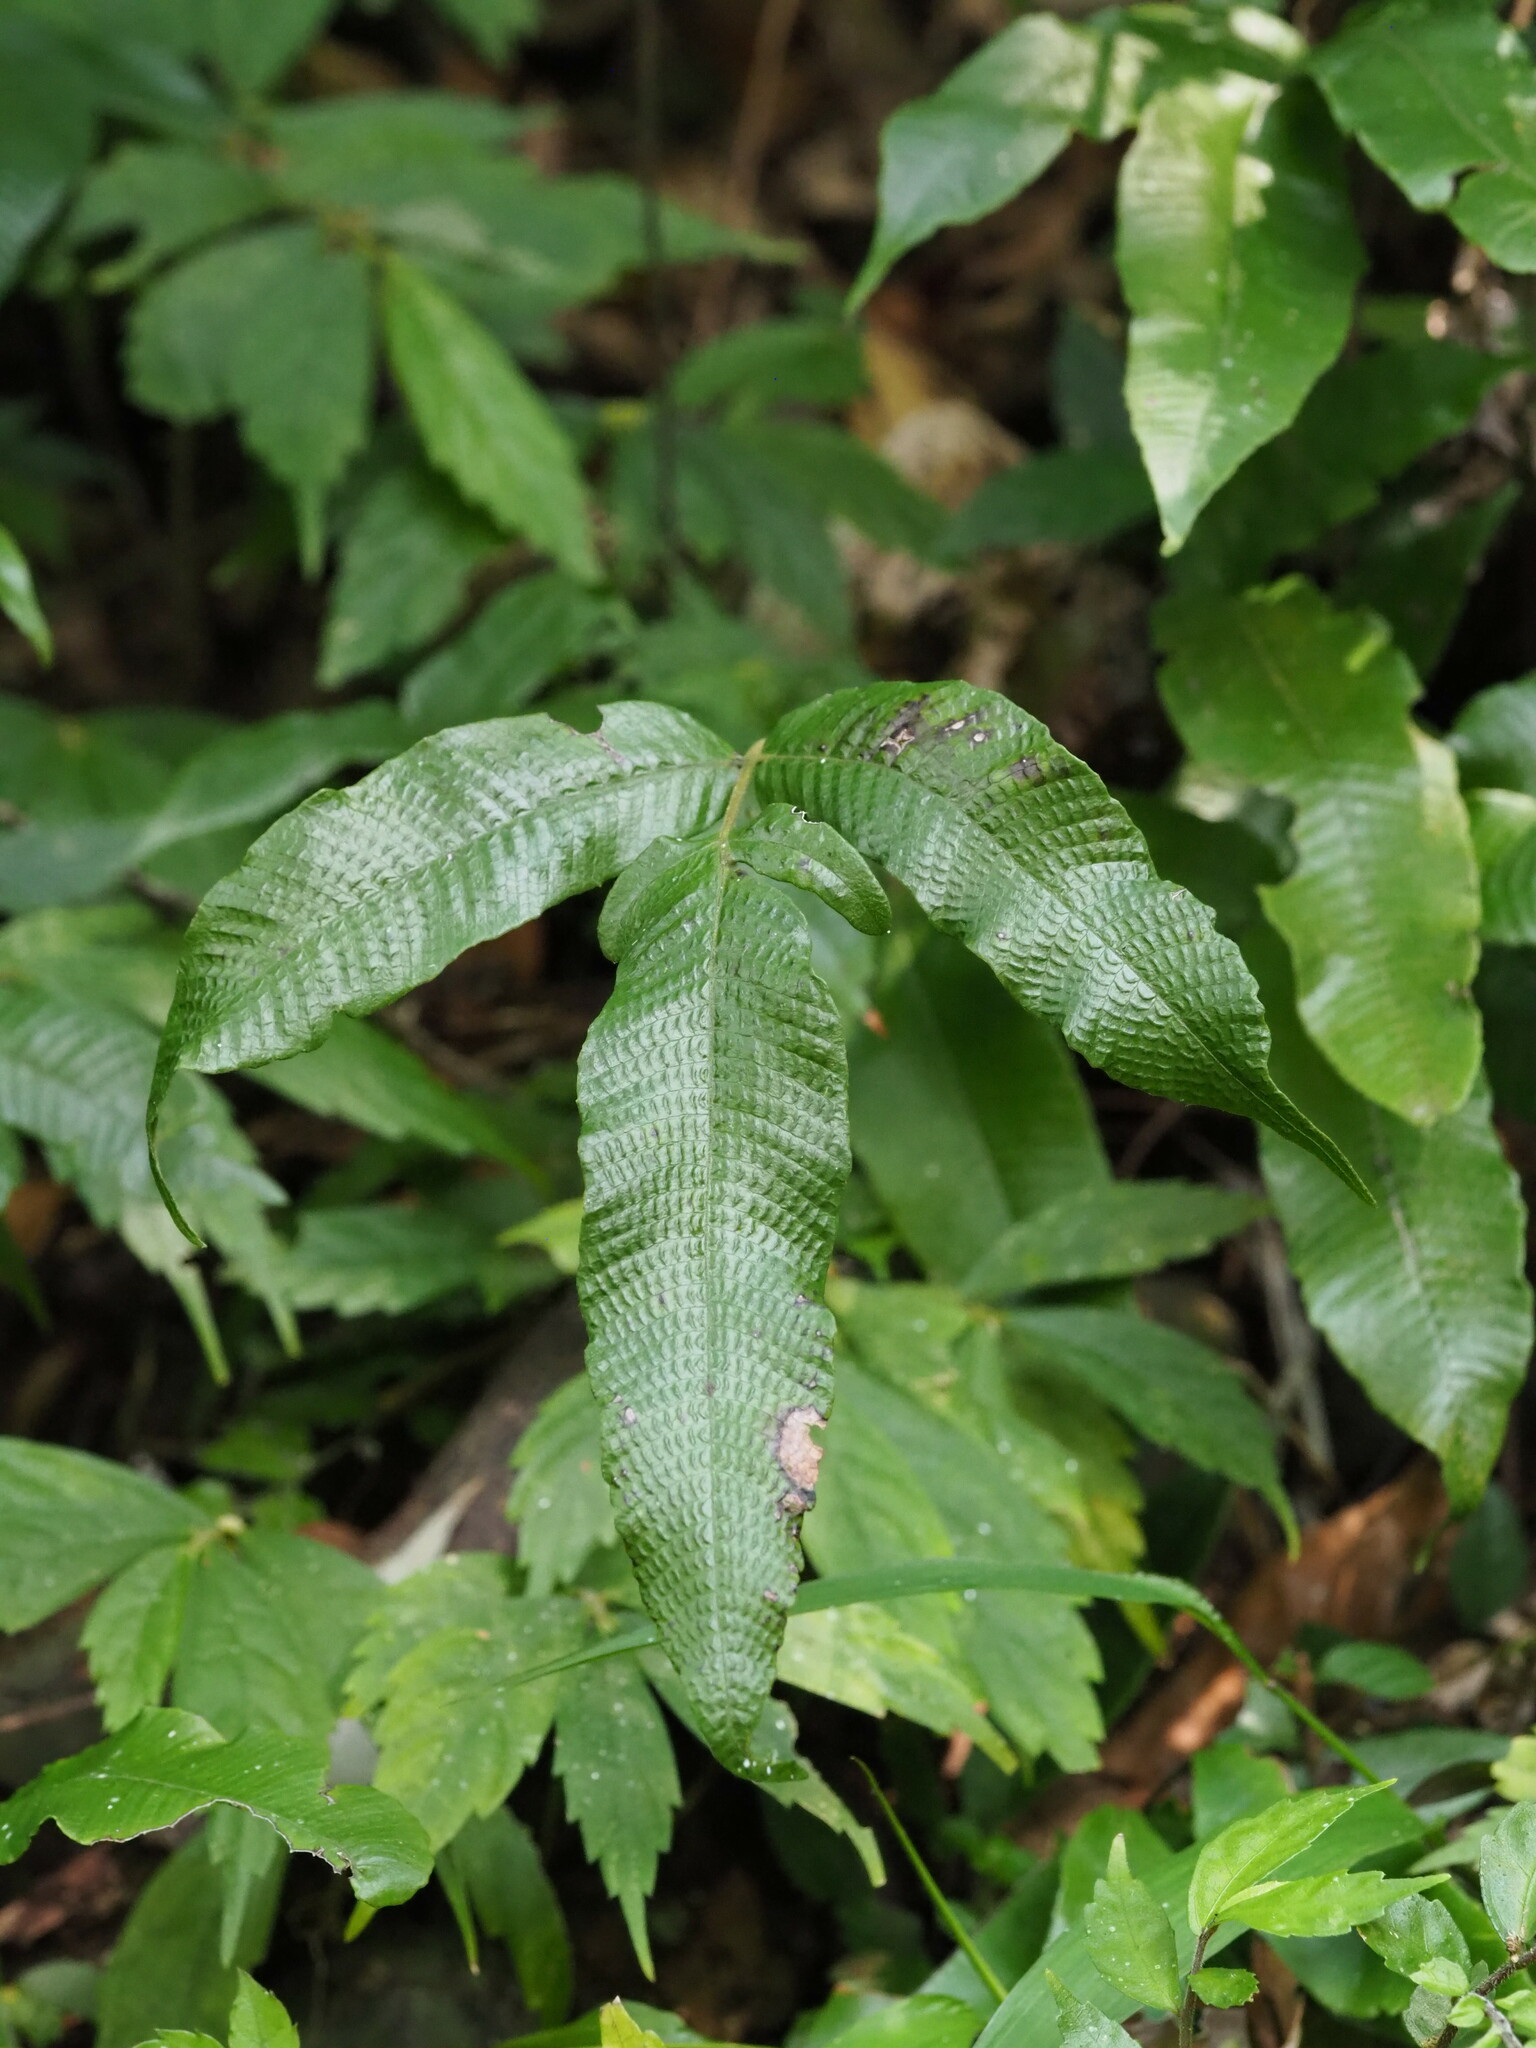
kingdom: Plantae
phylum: Tracheophyta
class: Polypodiopsida
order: Polypodiales
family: Thelypteridaceae
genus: Grypothrix
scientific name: Grypothrix triphylla
